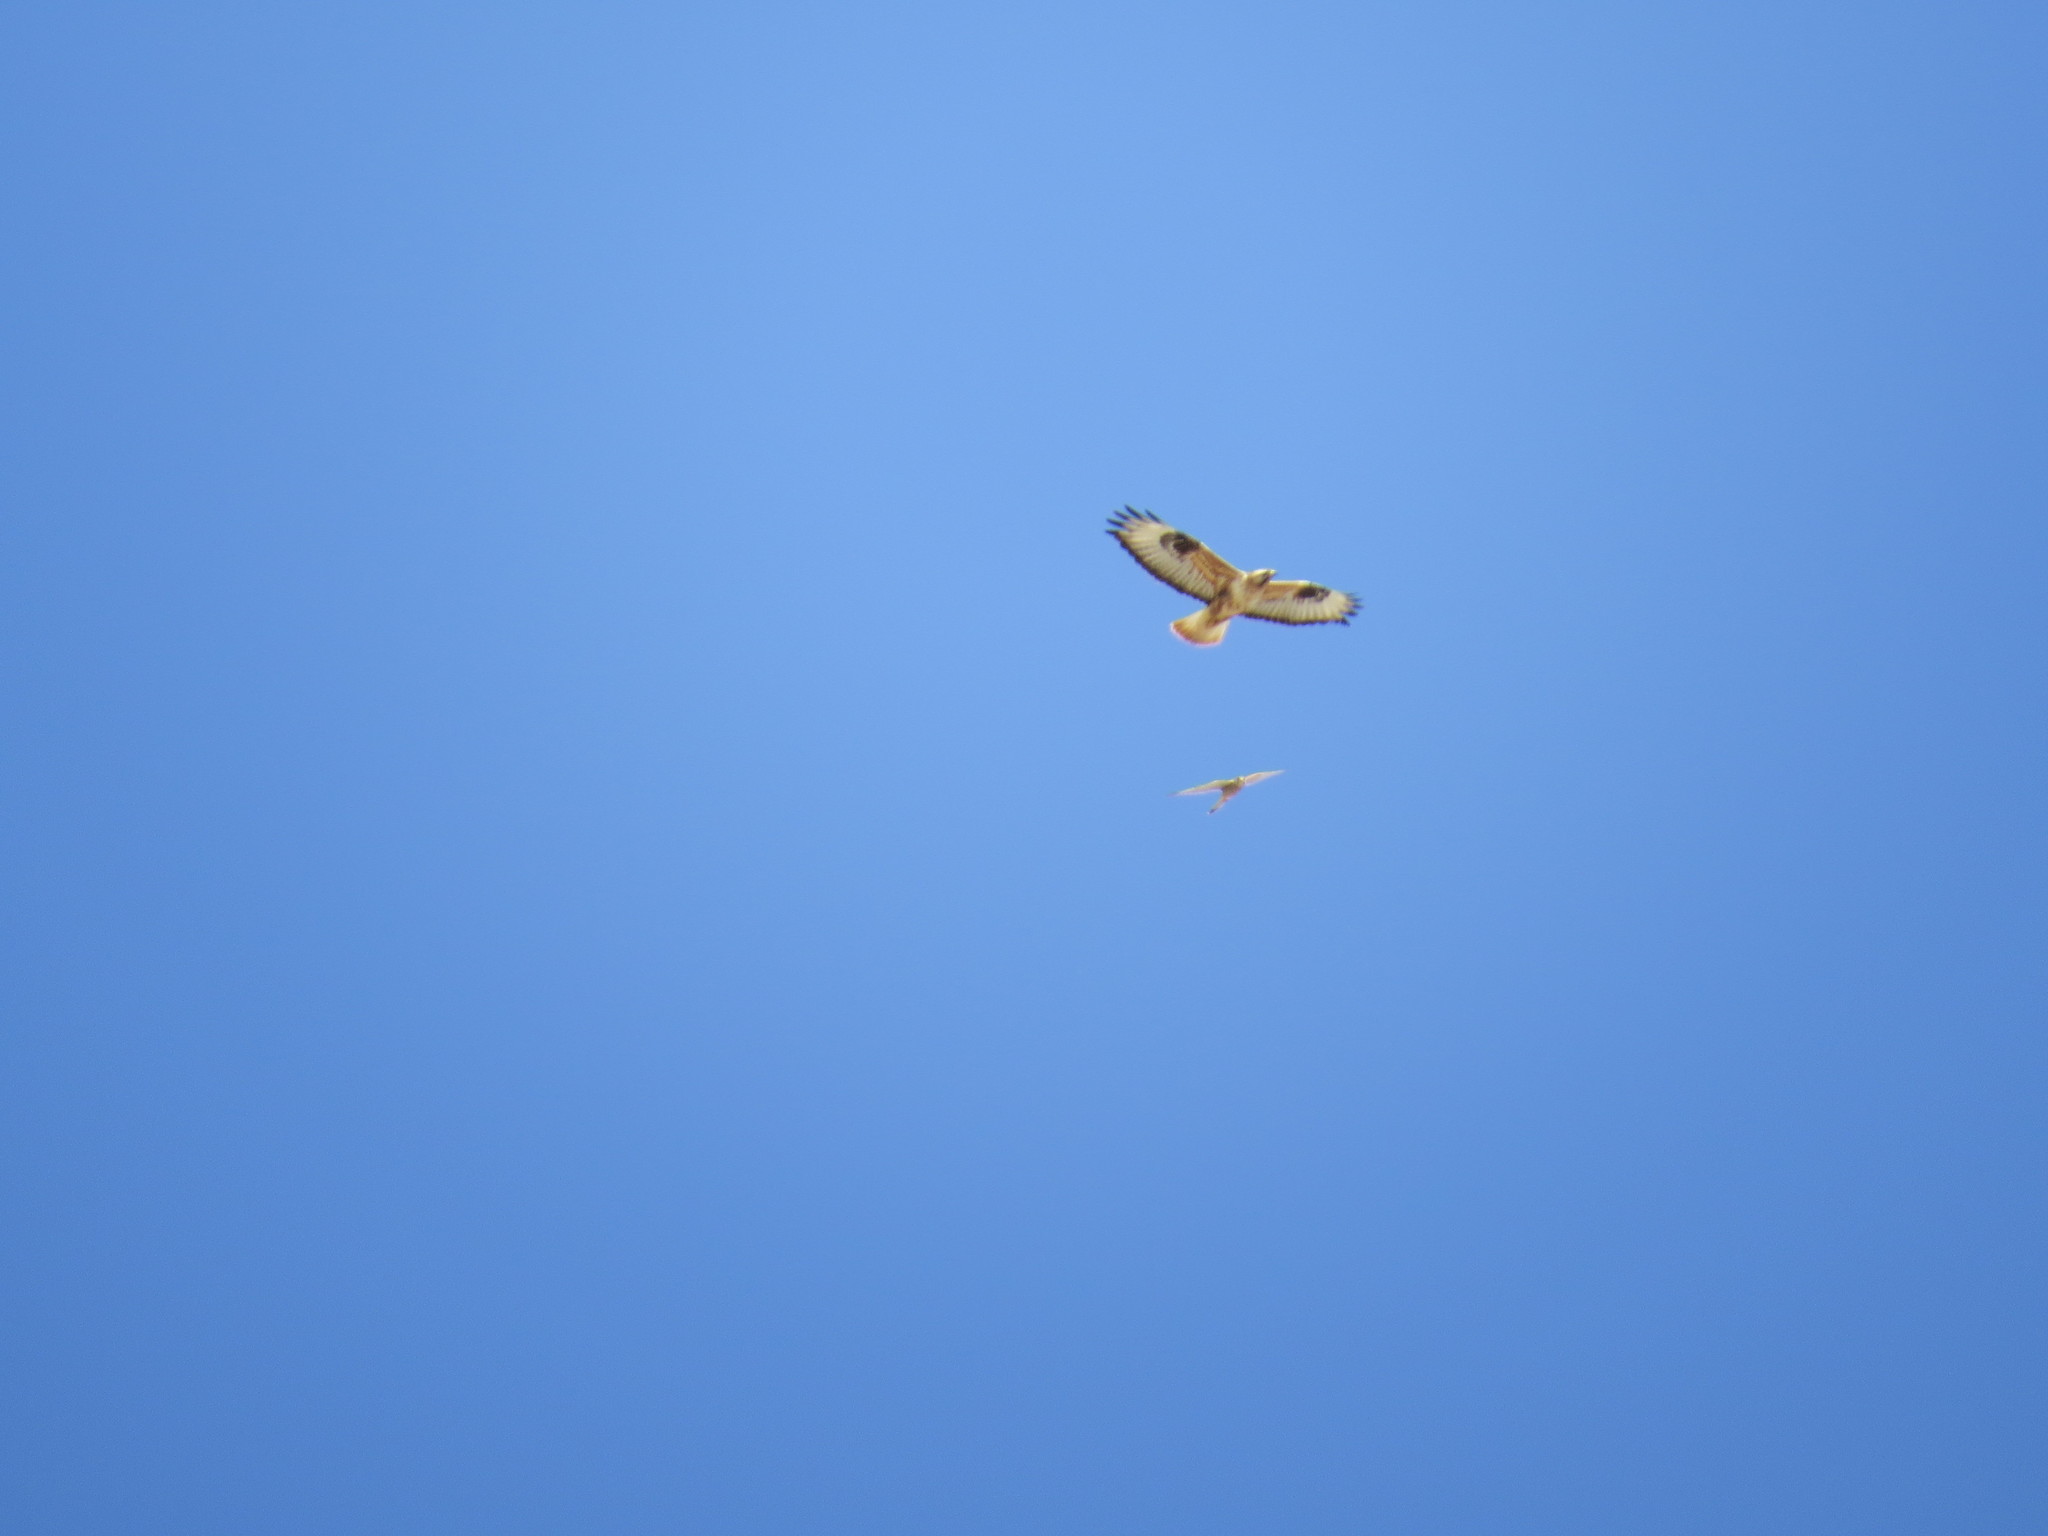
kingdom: Animalia
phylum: Chordata
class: Aves
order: Accipitriformes
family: Accipitridae
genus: Buteo
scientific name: Buteo rufinus
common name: Long-legged buzzard
